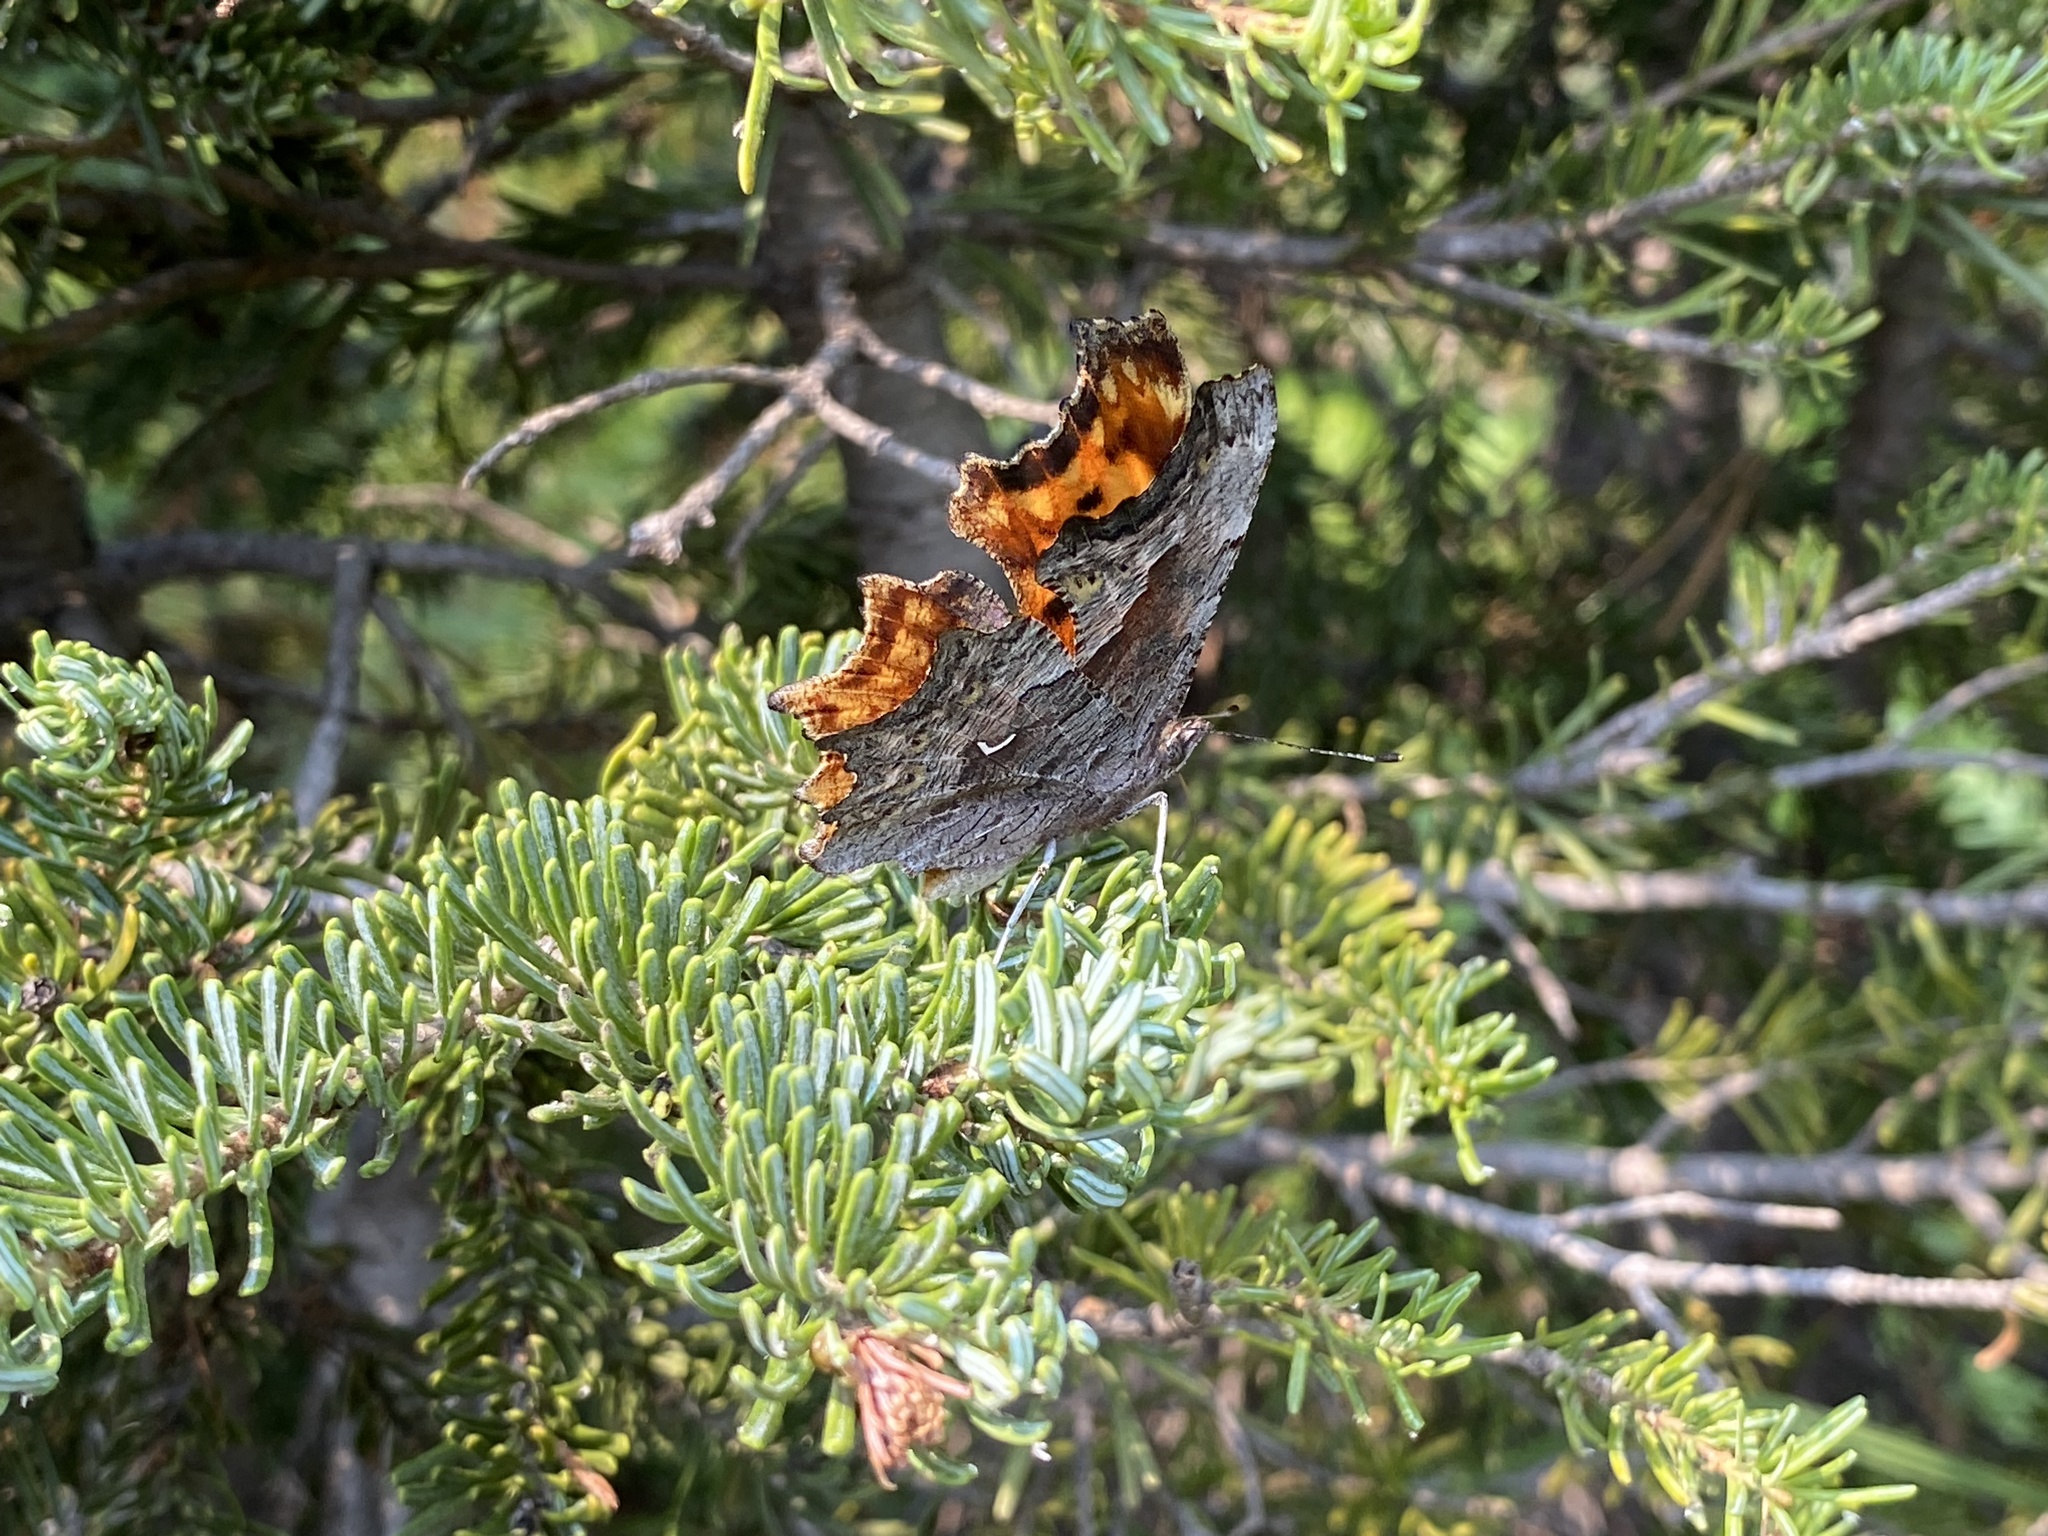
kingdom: Animalia
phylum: Arthropoda
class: Insecta
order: Lepidoptera
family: Nymphalidae
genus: Polygonia
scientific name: Polygonia gracilis
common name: Hoary comma
